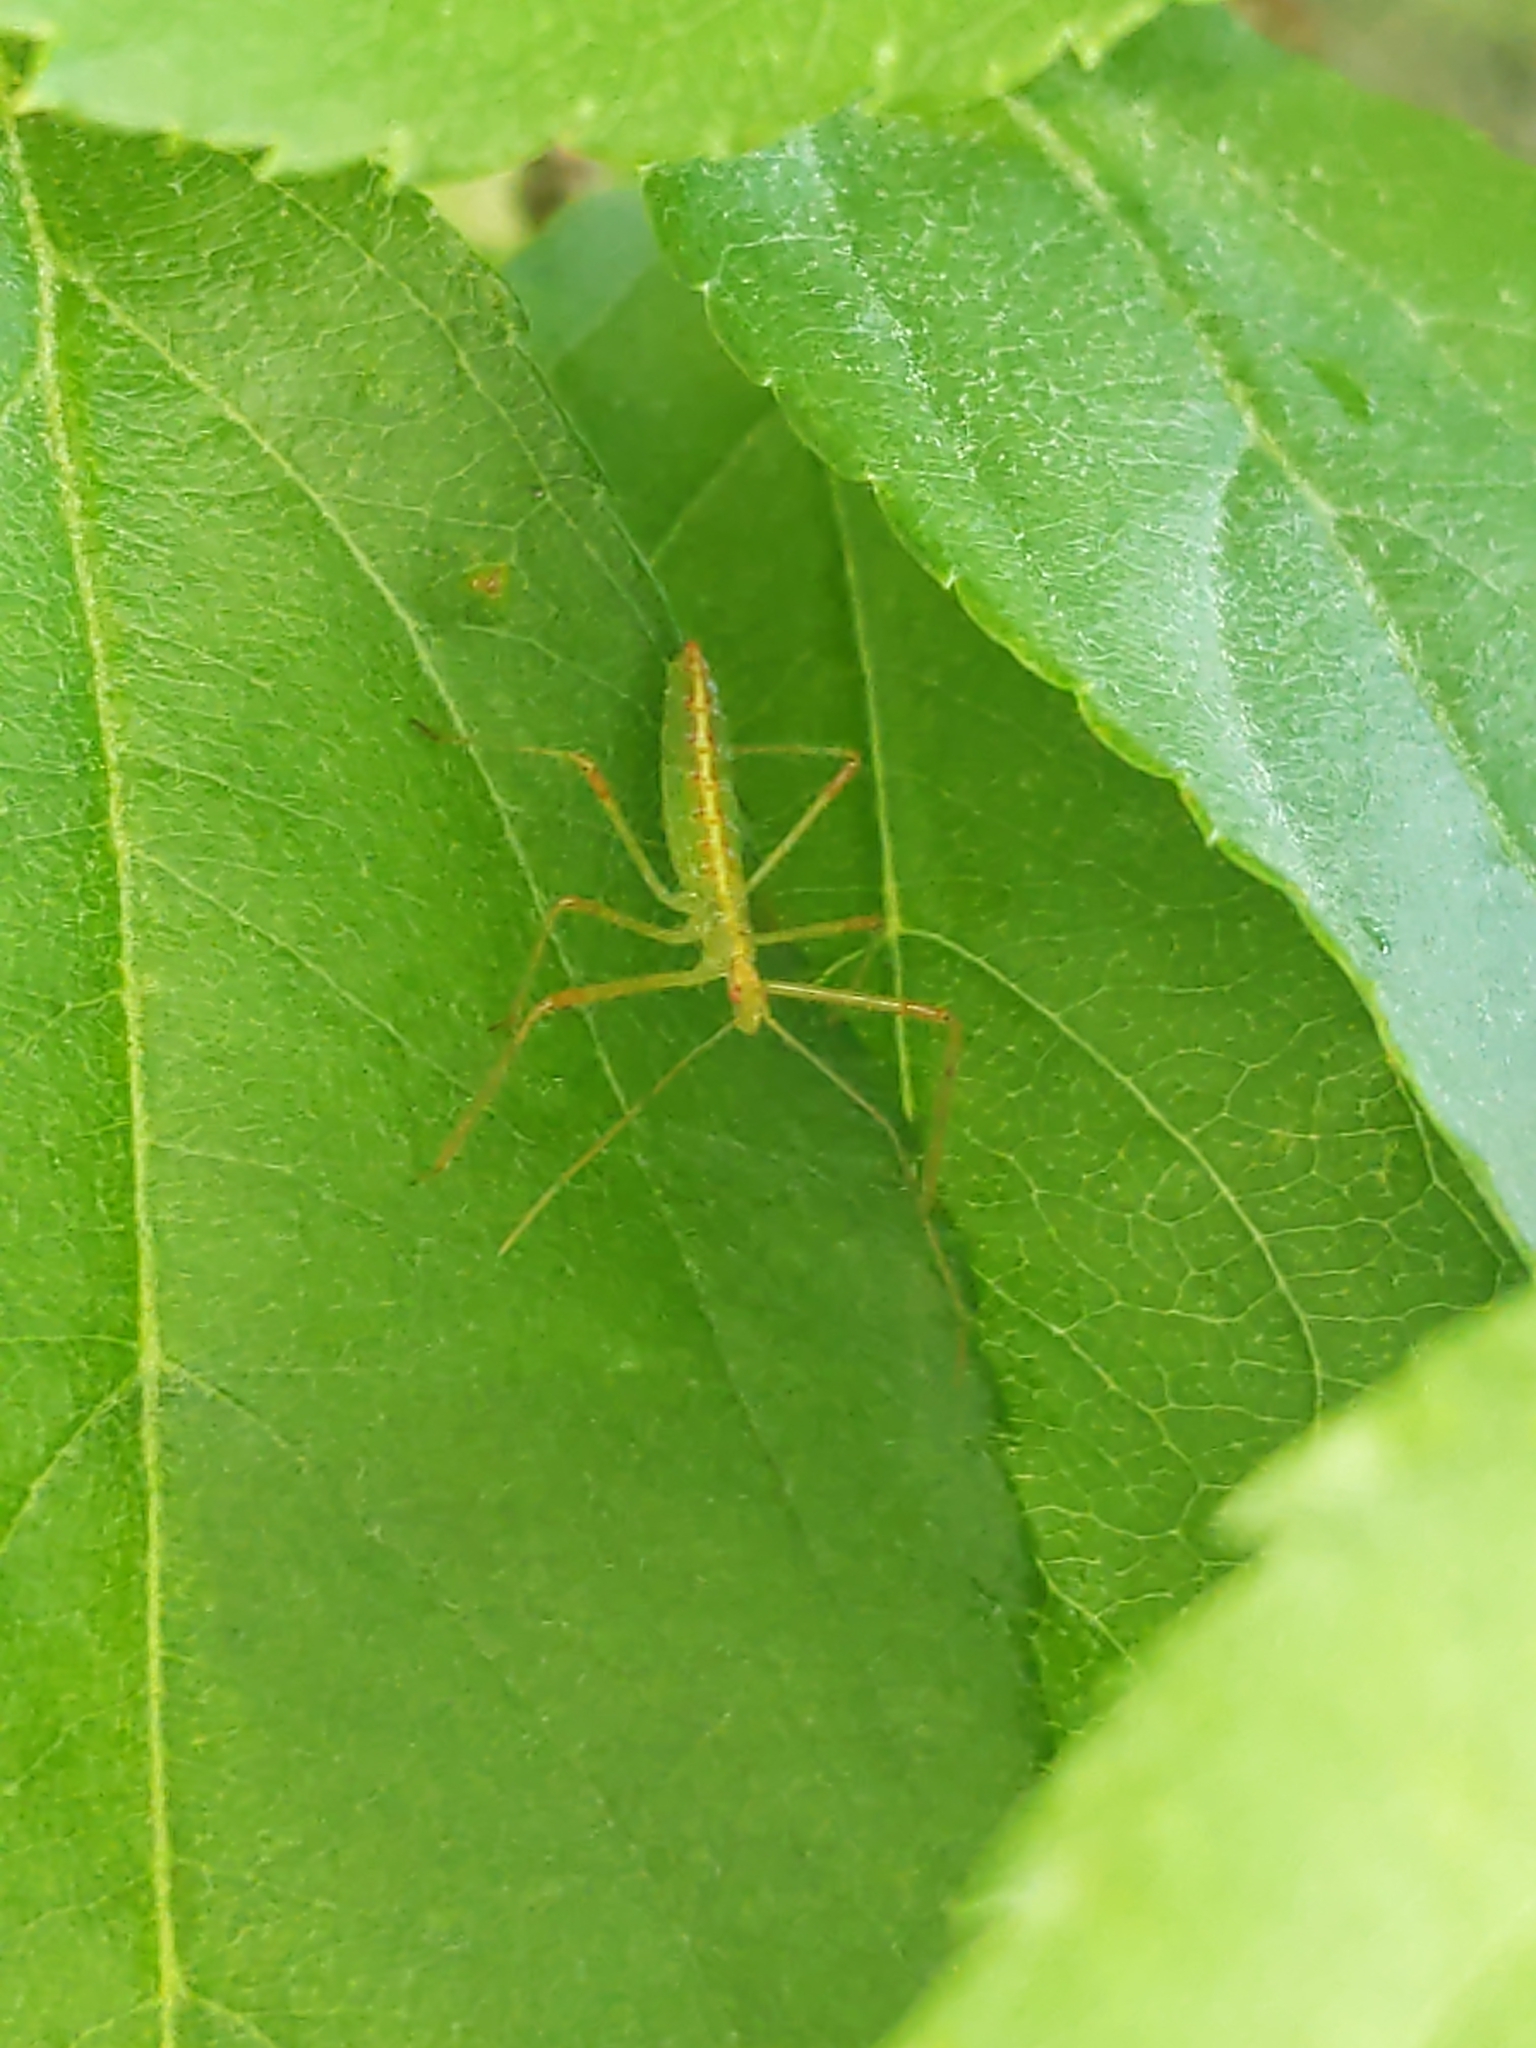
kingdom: Animalia
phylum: Arthropoda
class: Insecta
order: Hemiptera
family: Reduviidae
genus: Zelus
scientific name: Zelus luridus
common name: Pale green assassin bug
